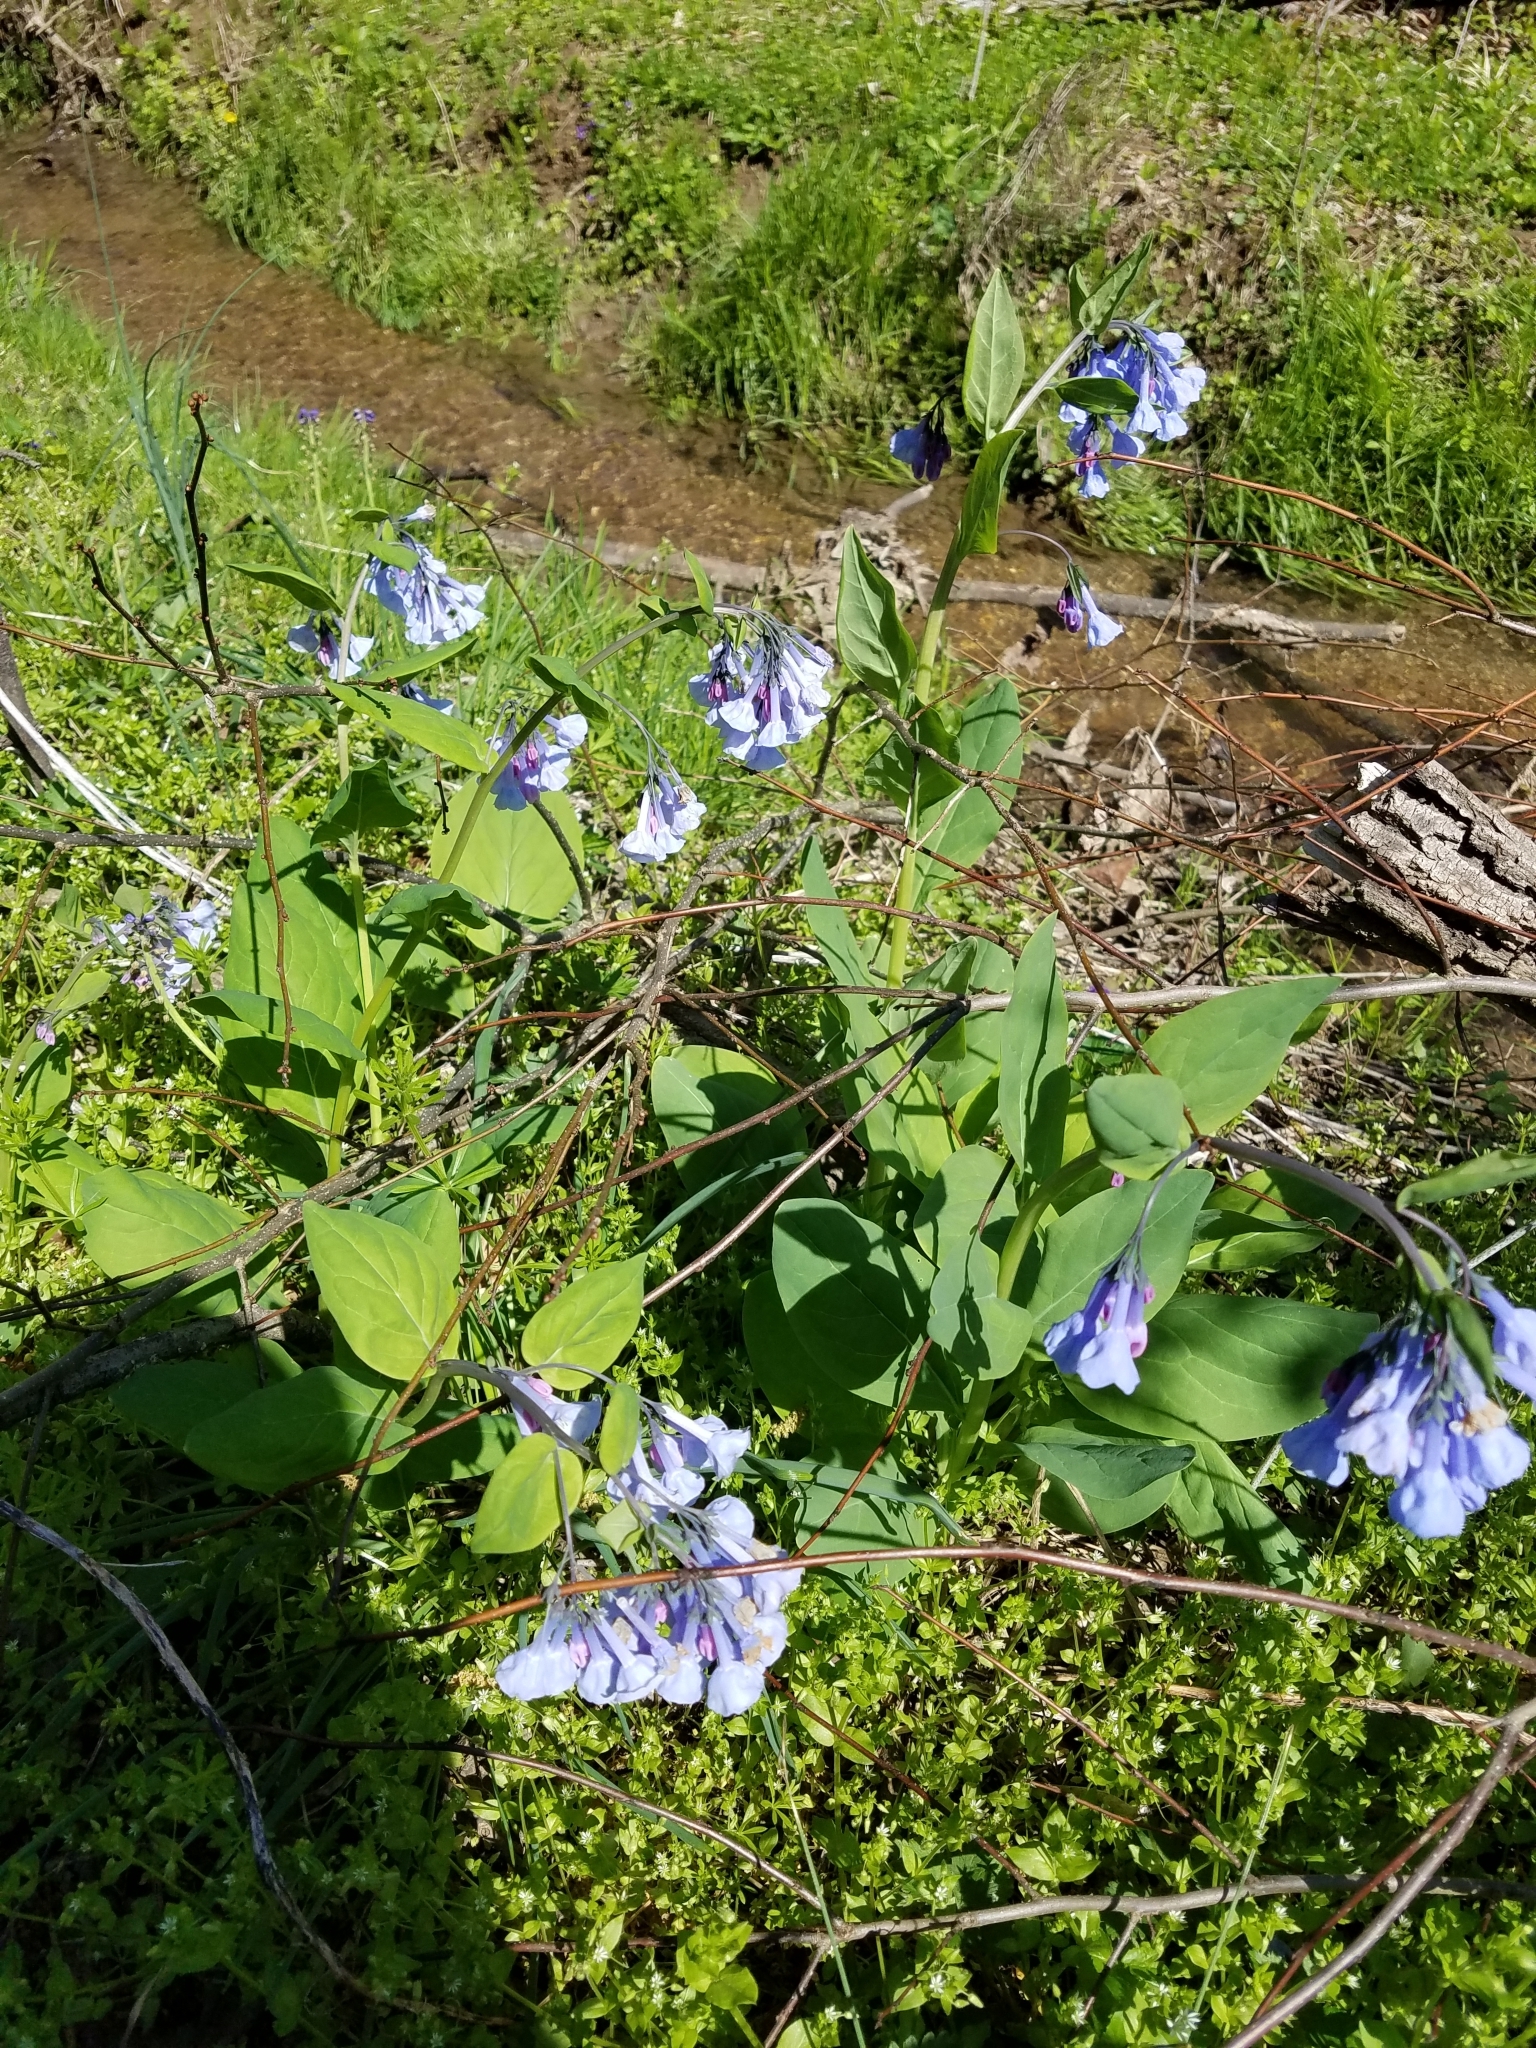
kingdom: Plantae
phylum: Tracheophyta
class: Magnoliopsida
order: Boraginales
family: Boraginaceae
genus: Mertensia
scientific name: Mertensia virginica
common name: Virginia bluebells
